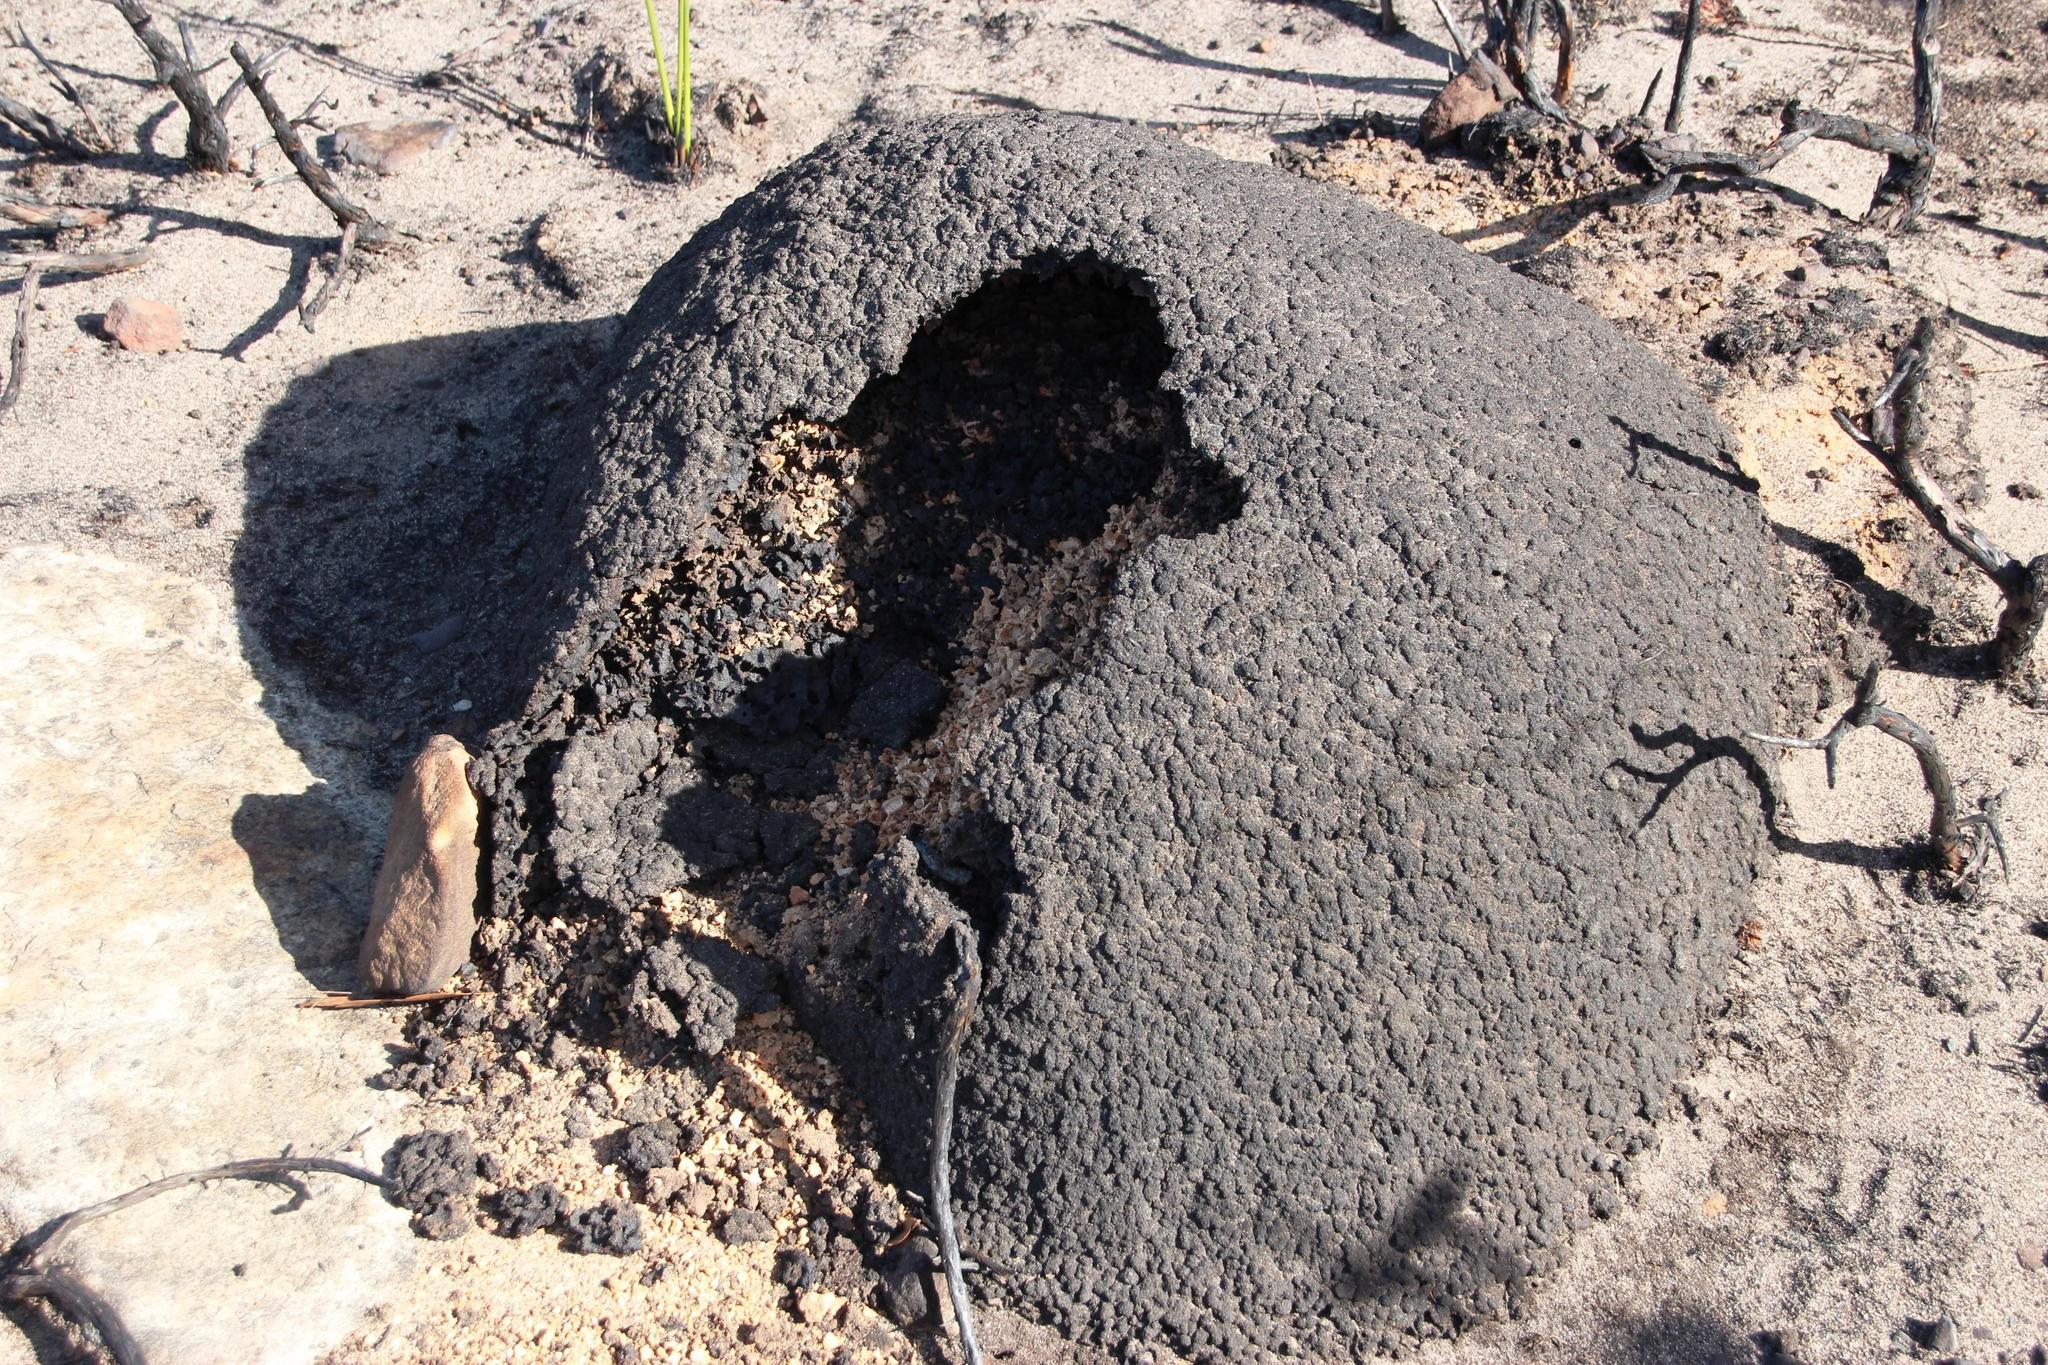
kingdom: Animalia
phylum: Arthropoda
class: Insecta
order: Blattodea
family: Termitidae
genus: Amitermes
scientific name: Amitermes hastatus
